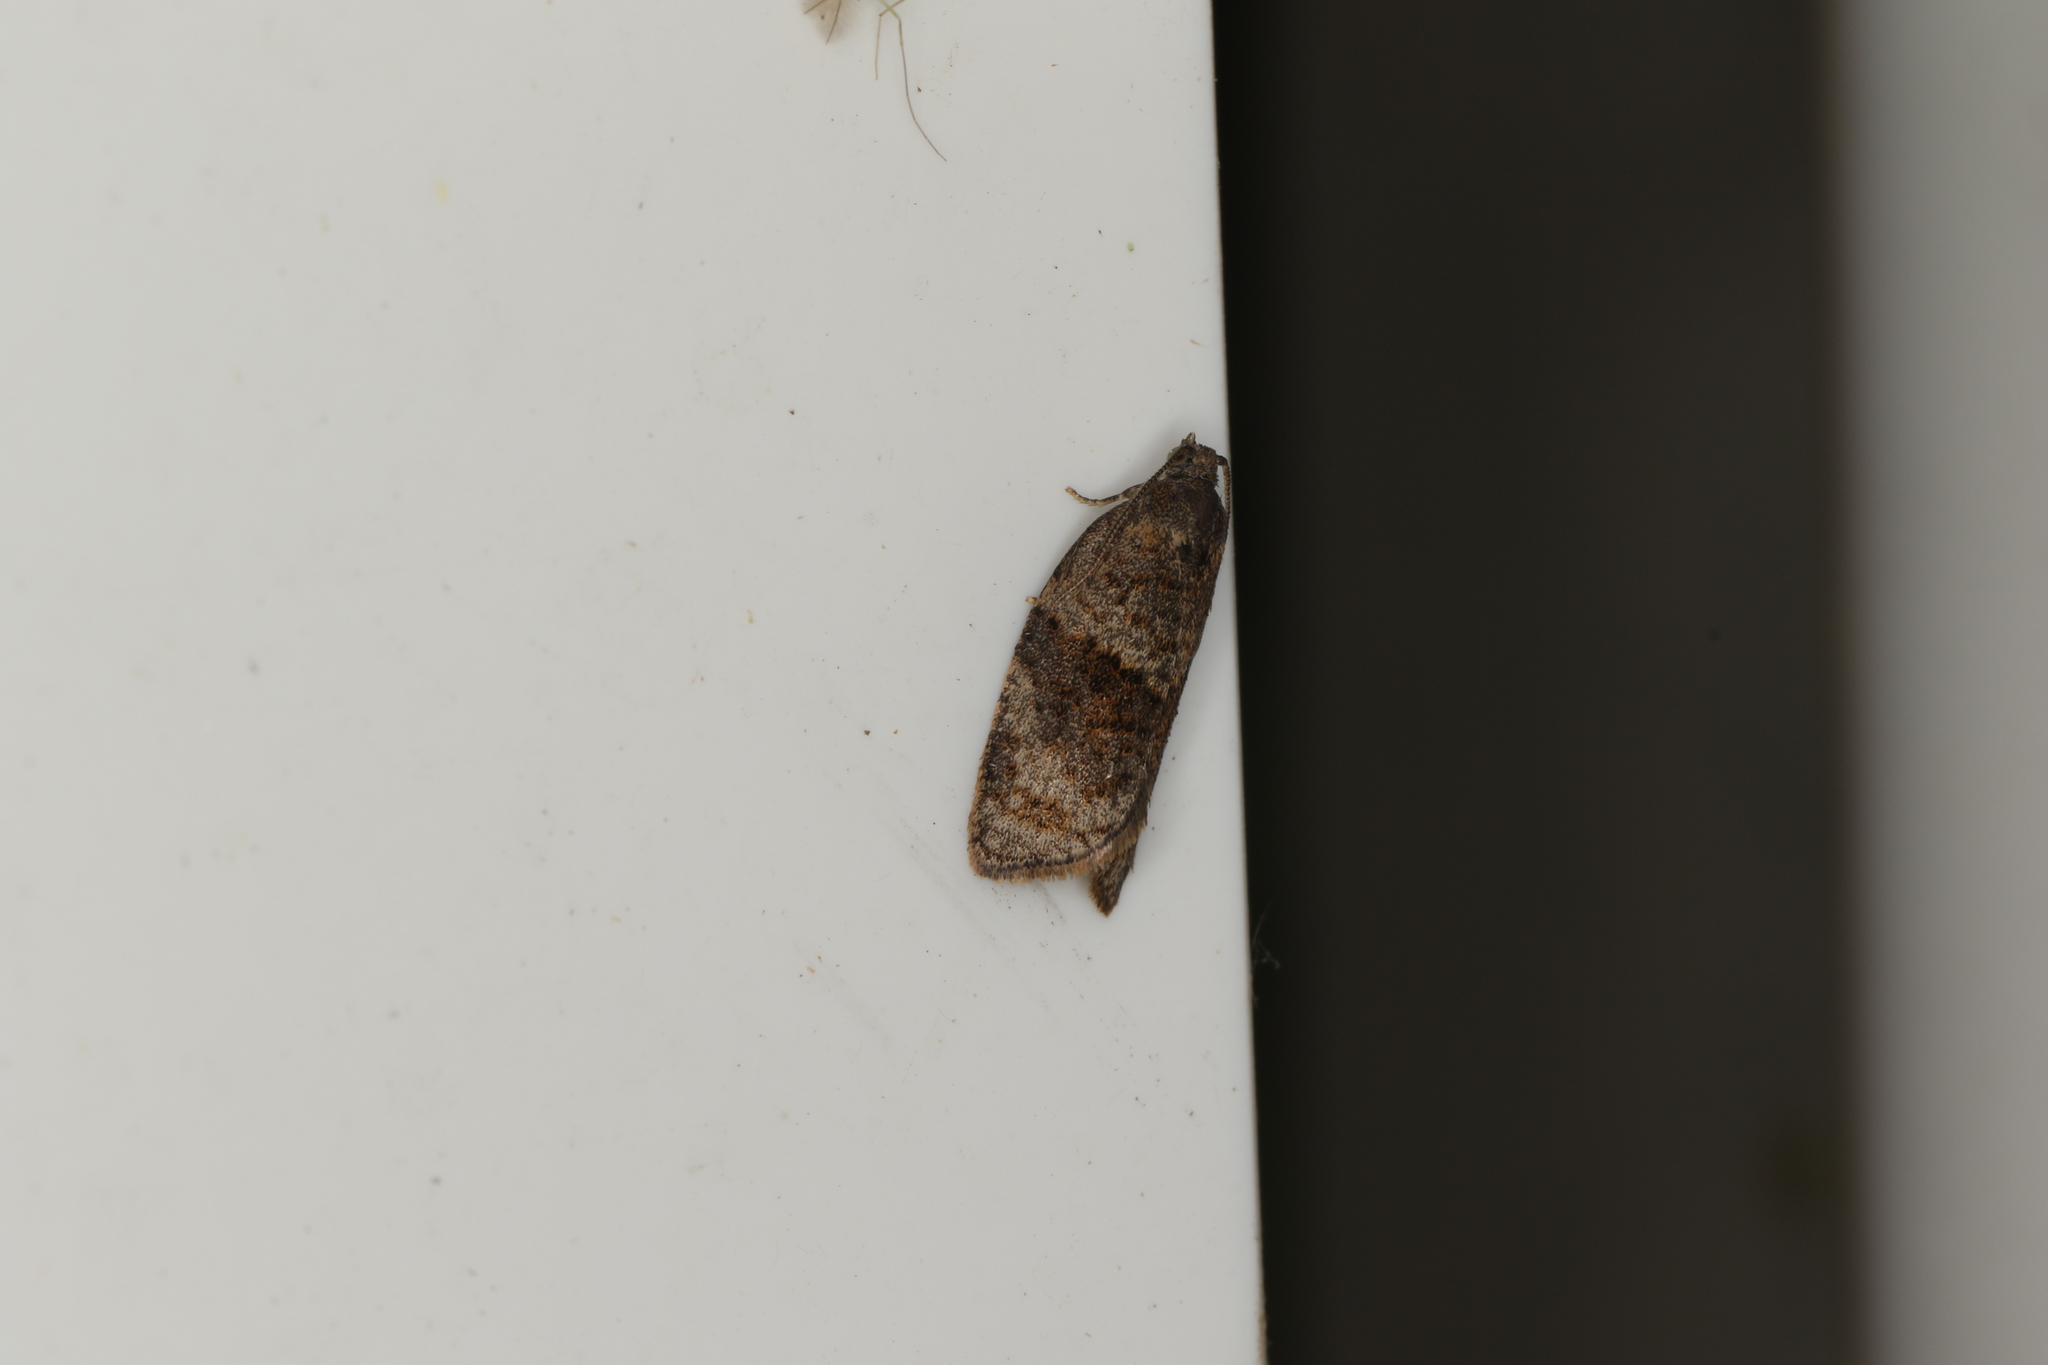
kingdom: Animalia
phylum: Arthropoda
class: Insecta
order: Lepidoptera
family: Tortricidae
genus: Syndemis
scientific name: Syndemis musculana
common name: Dark-barred twist
